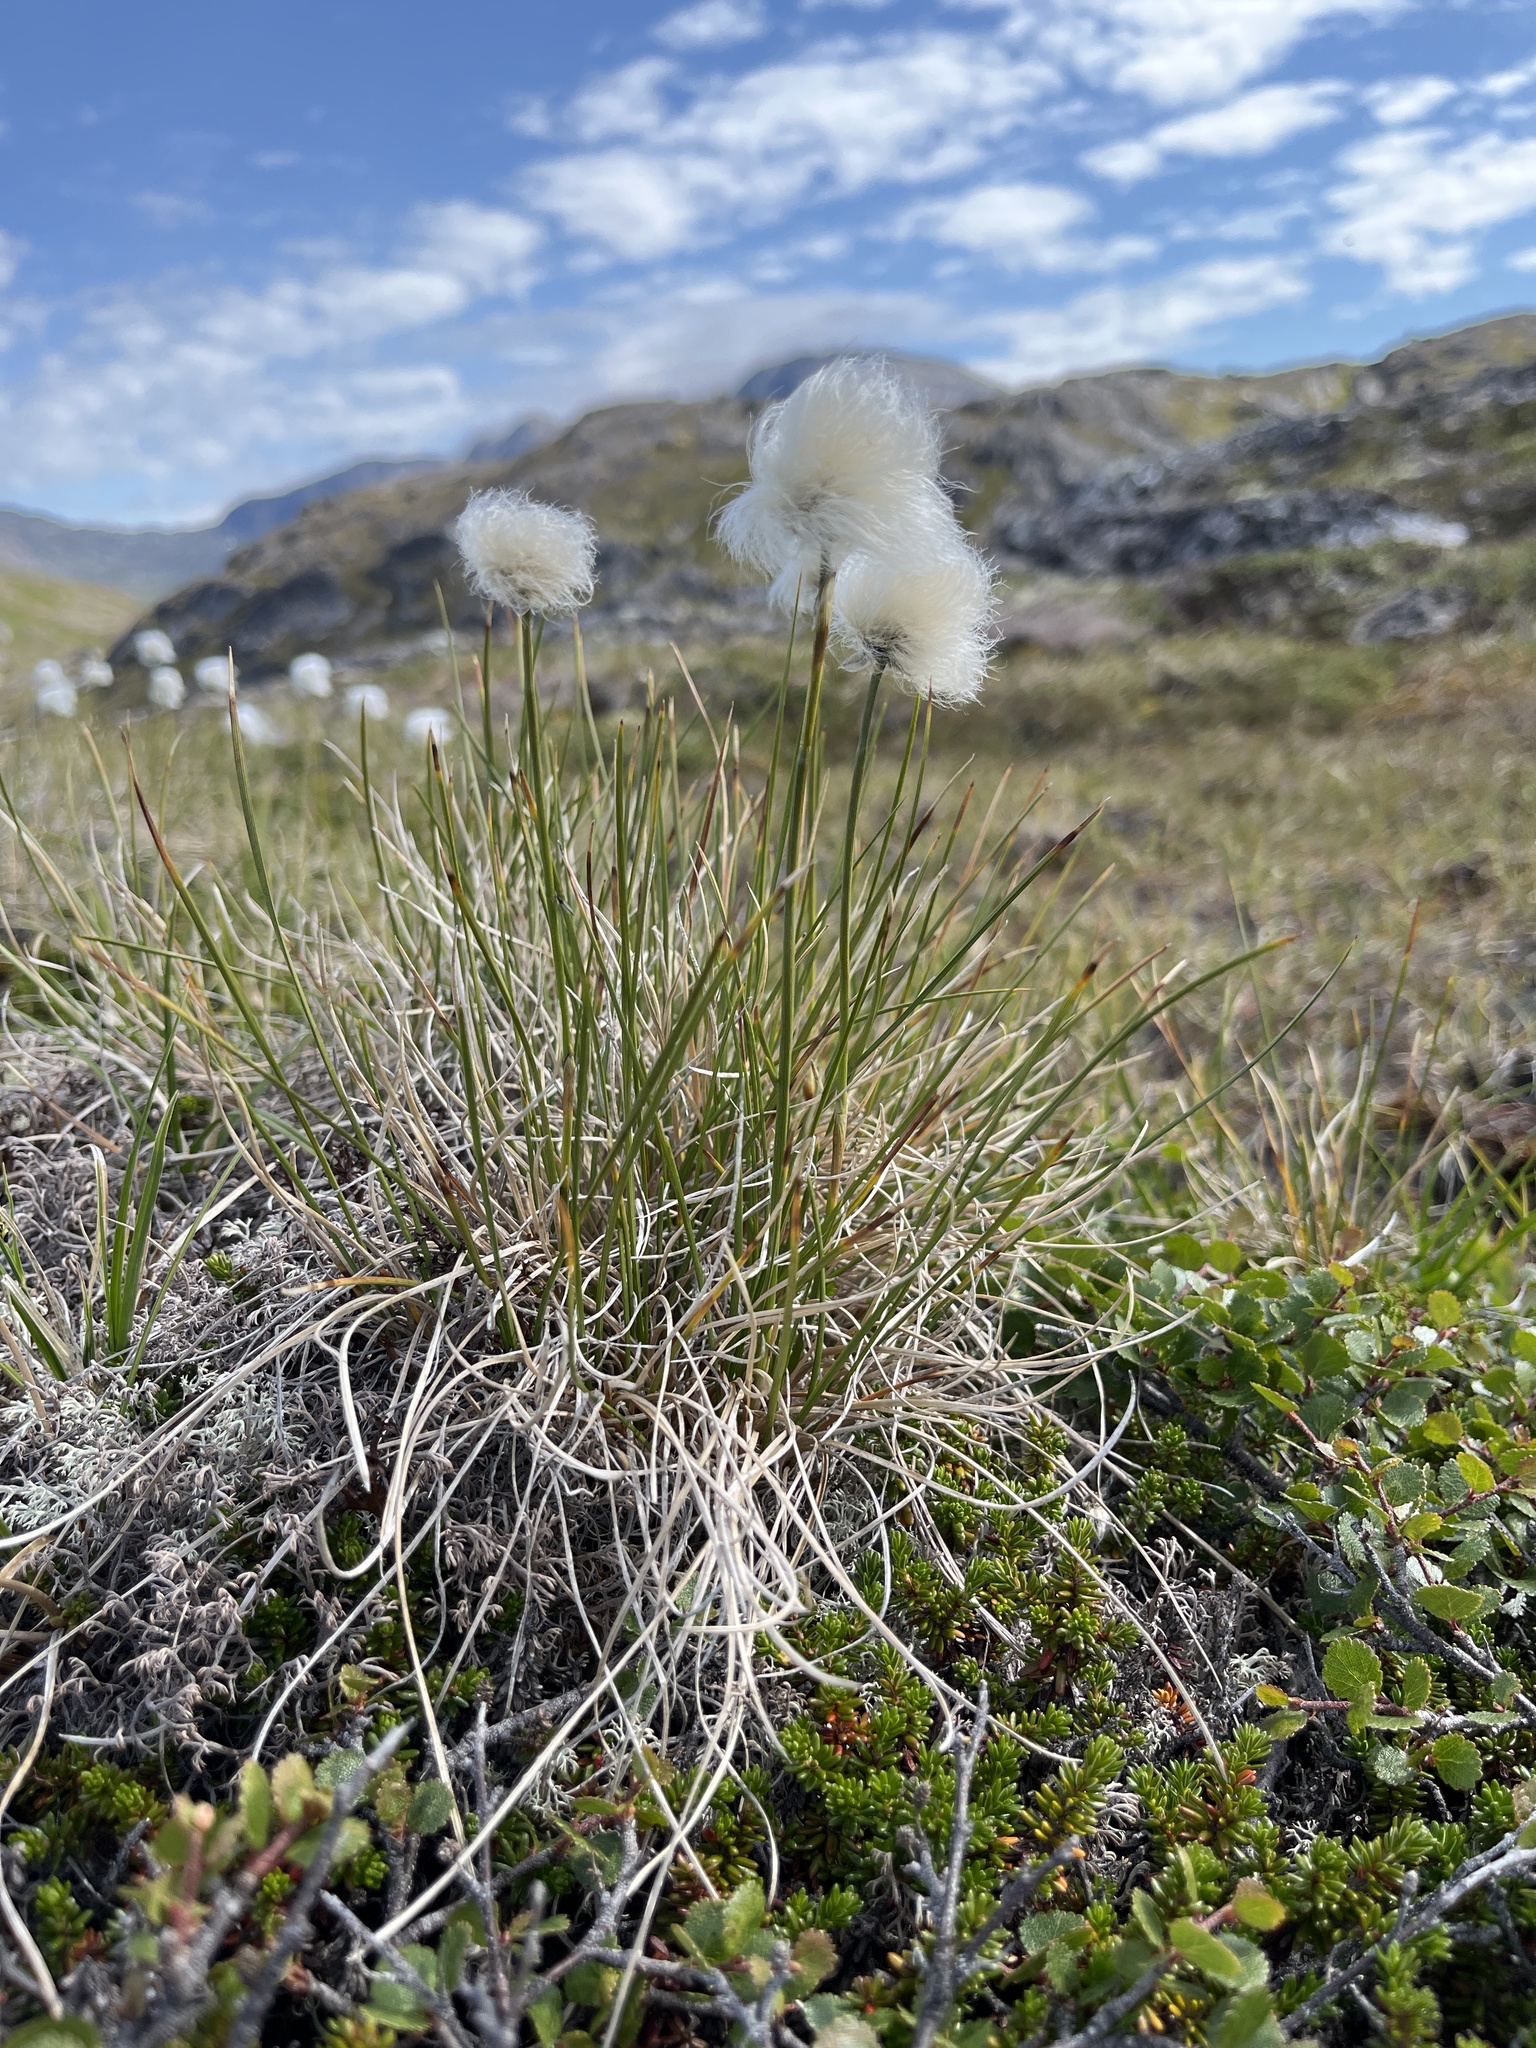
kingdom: Plantae
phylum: Tracheophyta
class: Liliopsida
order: Poales
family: Cyperaceae
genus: Eriophorum
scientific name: Eriophorum vaginatum
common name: Hare's-tail cottongrass
